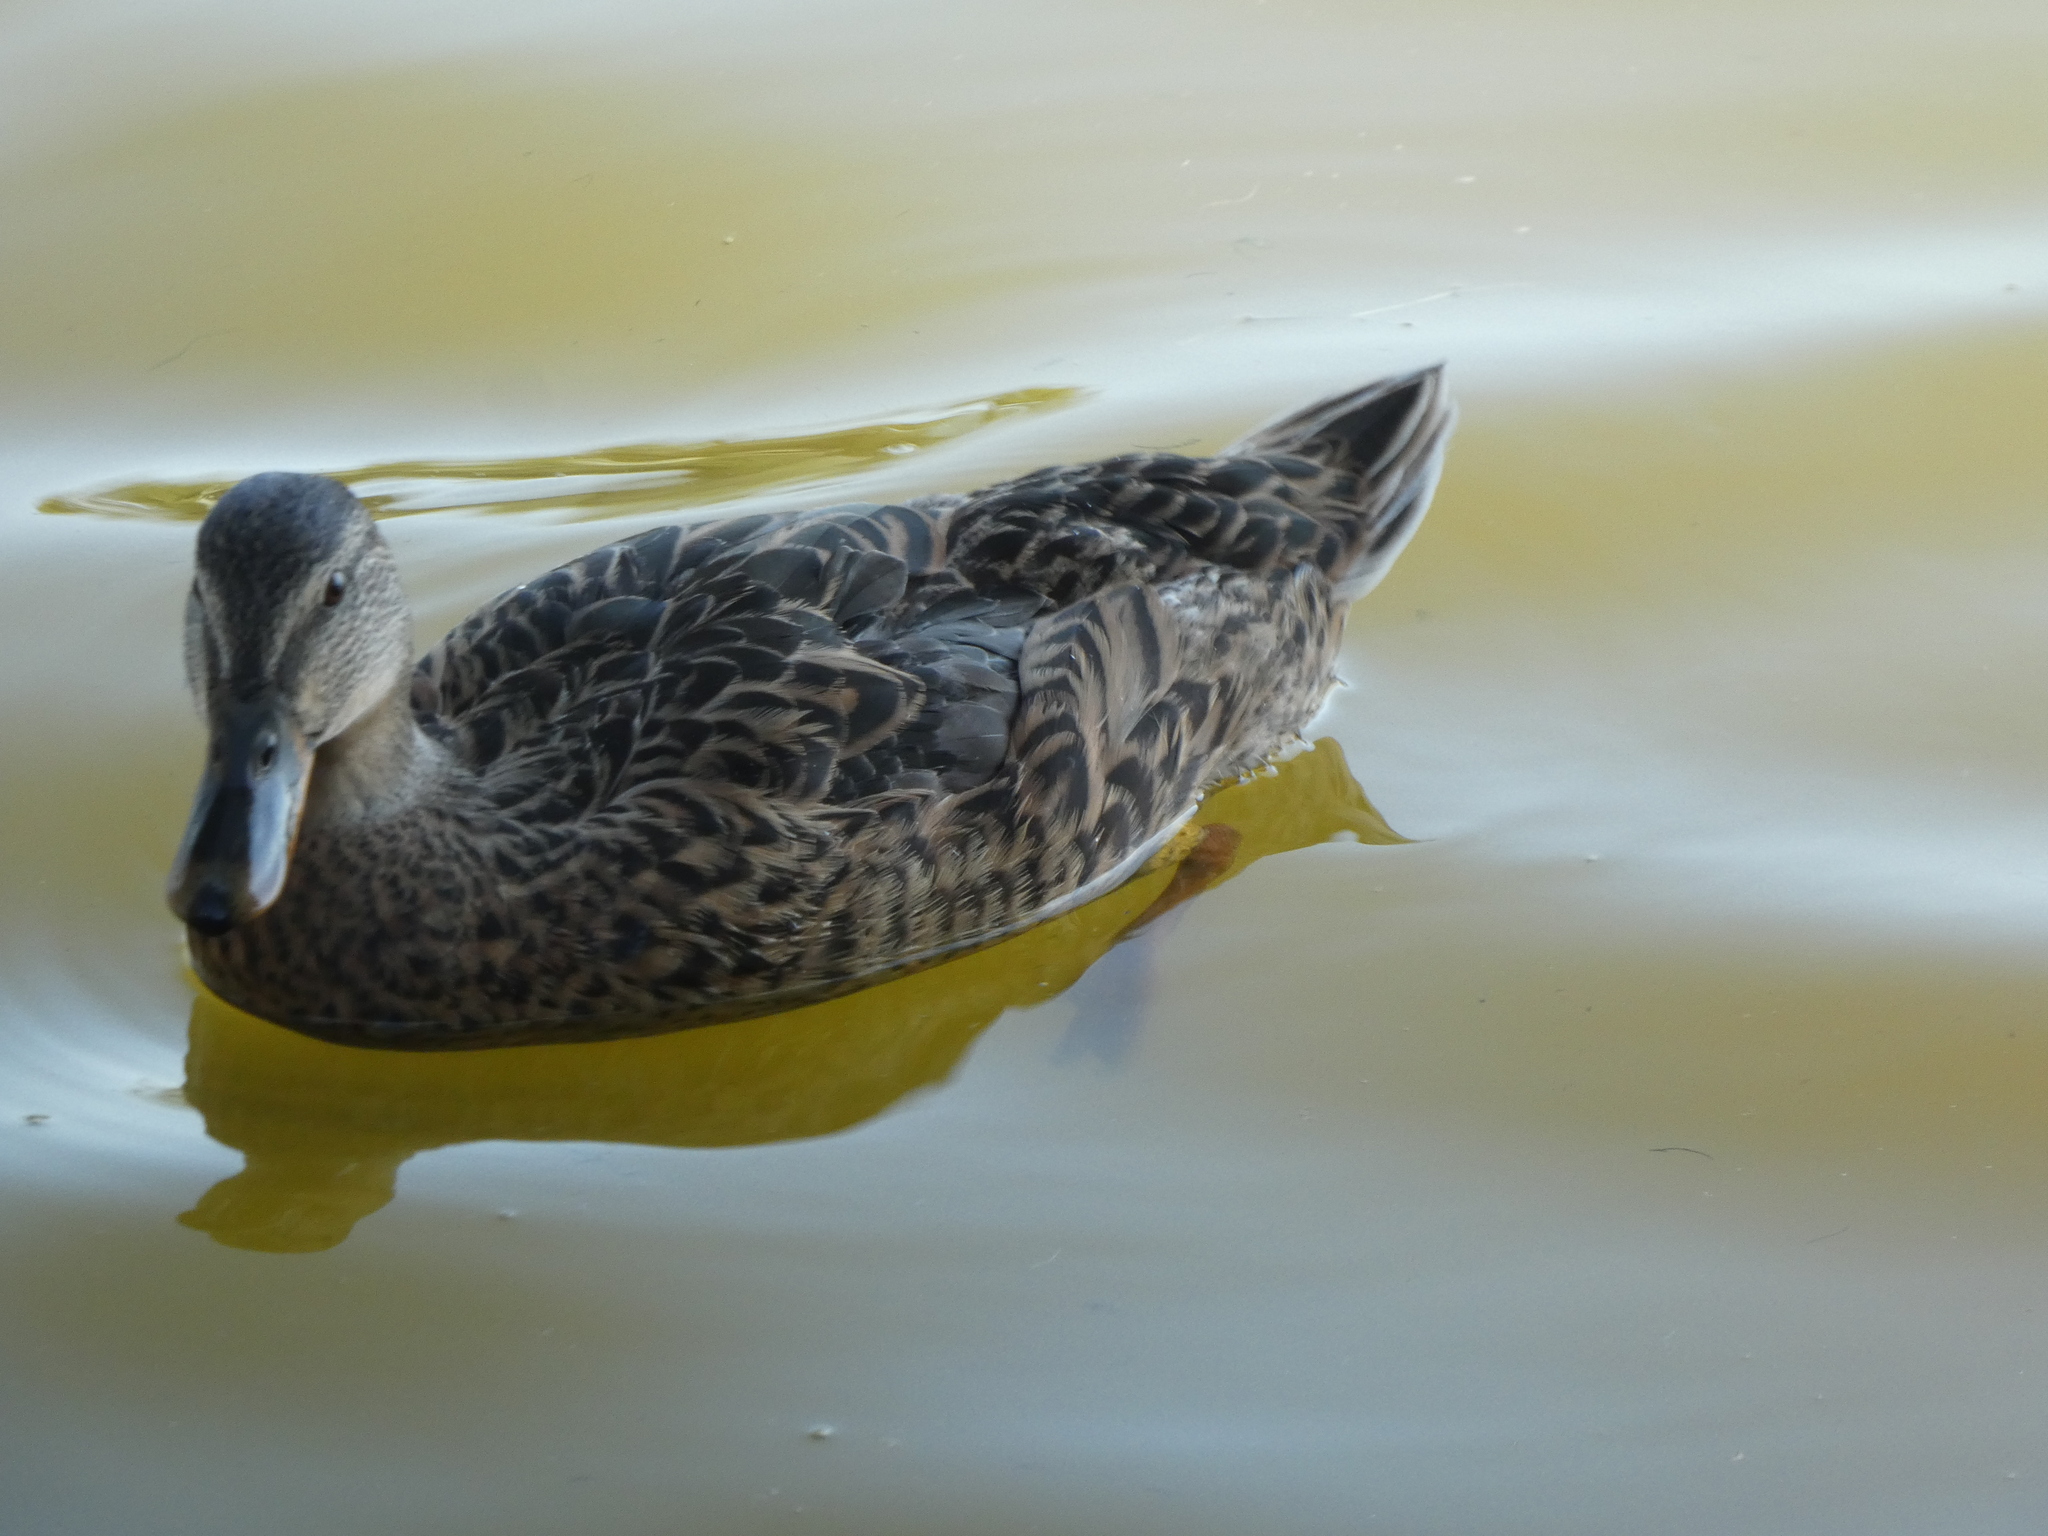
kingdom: Animalia
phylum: Chordata
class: Aves
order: Anseriformes
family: Anatidae
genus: Anas
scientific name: Anas platyrhynchos
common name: Mallard
